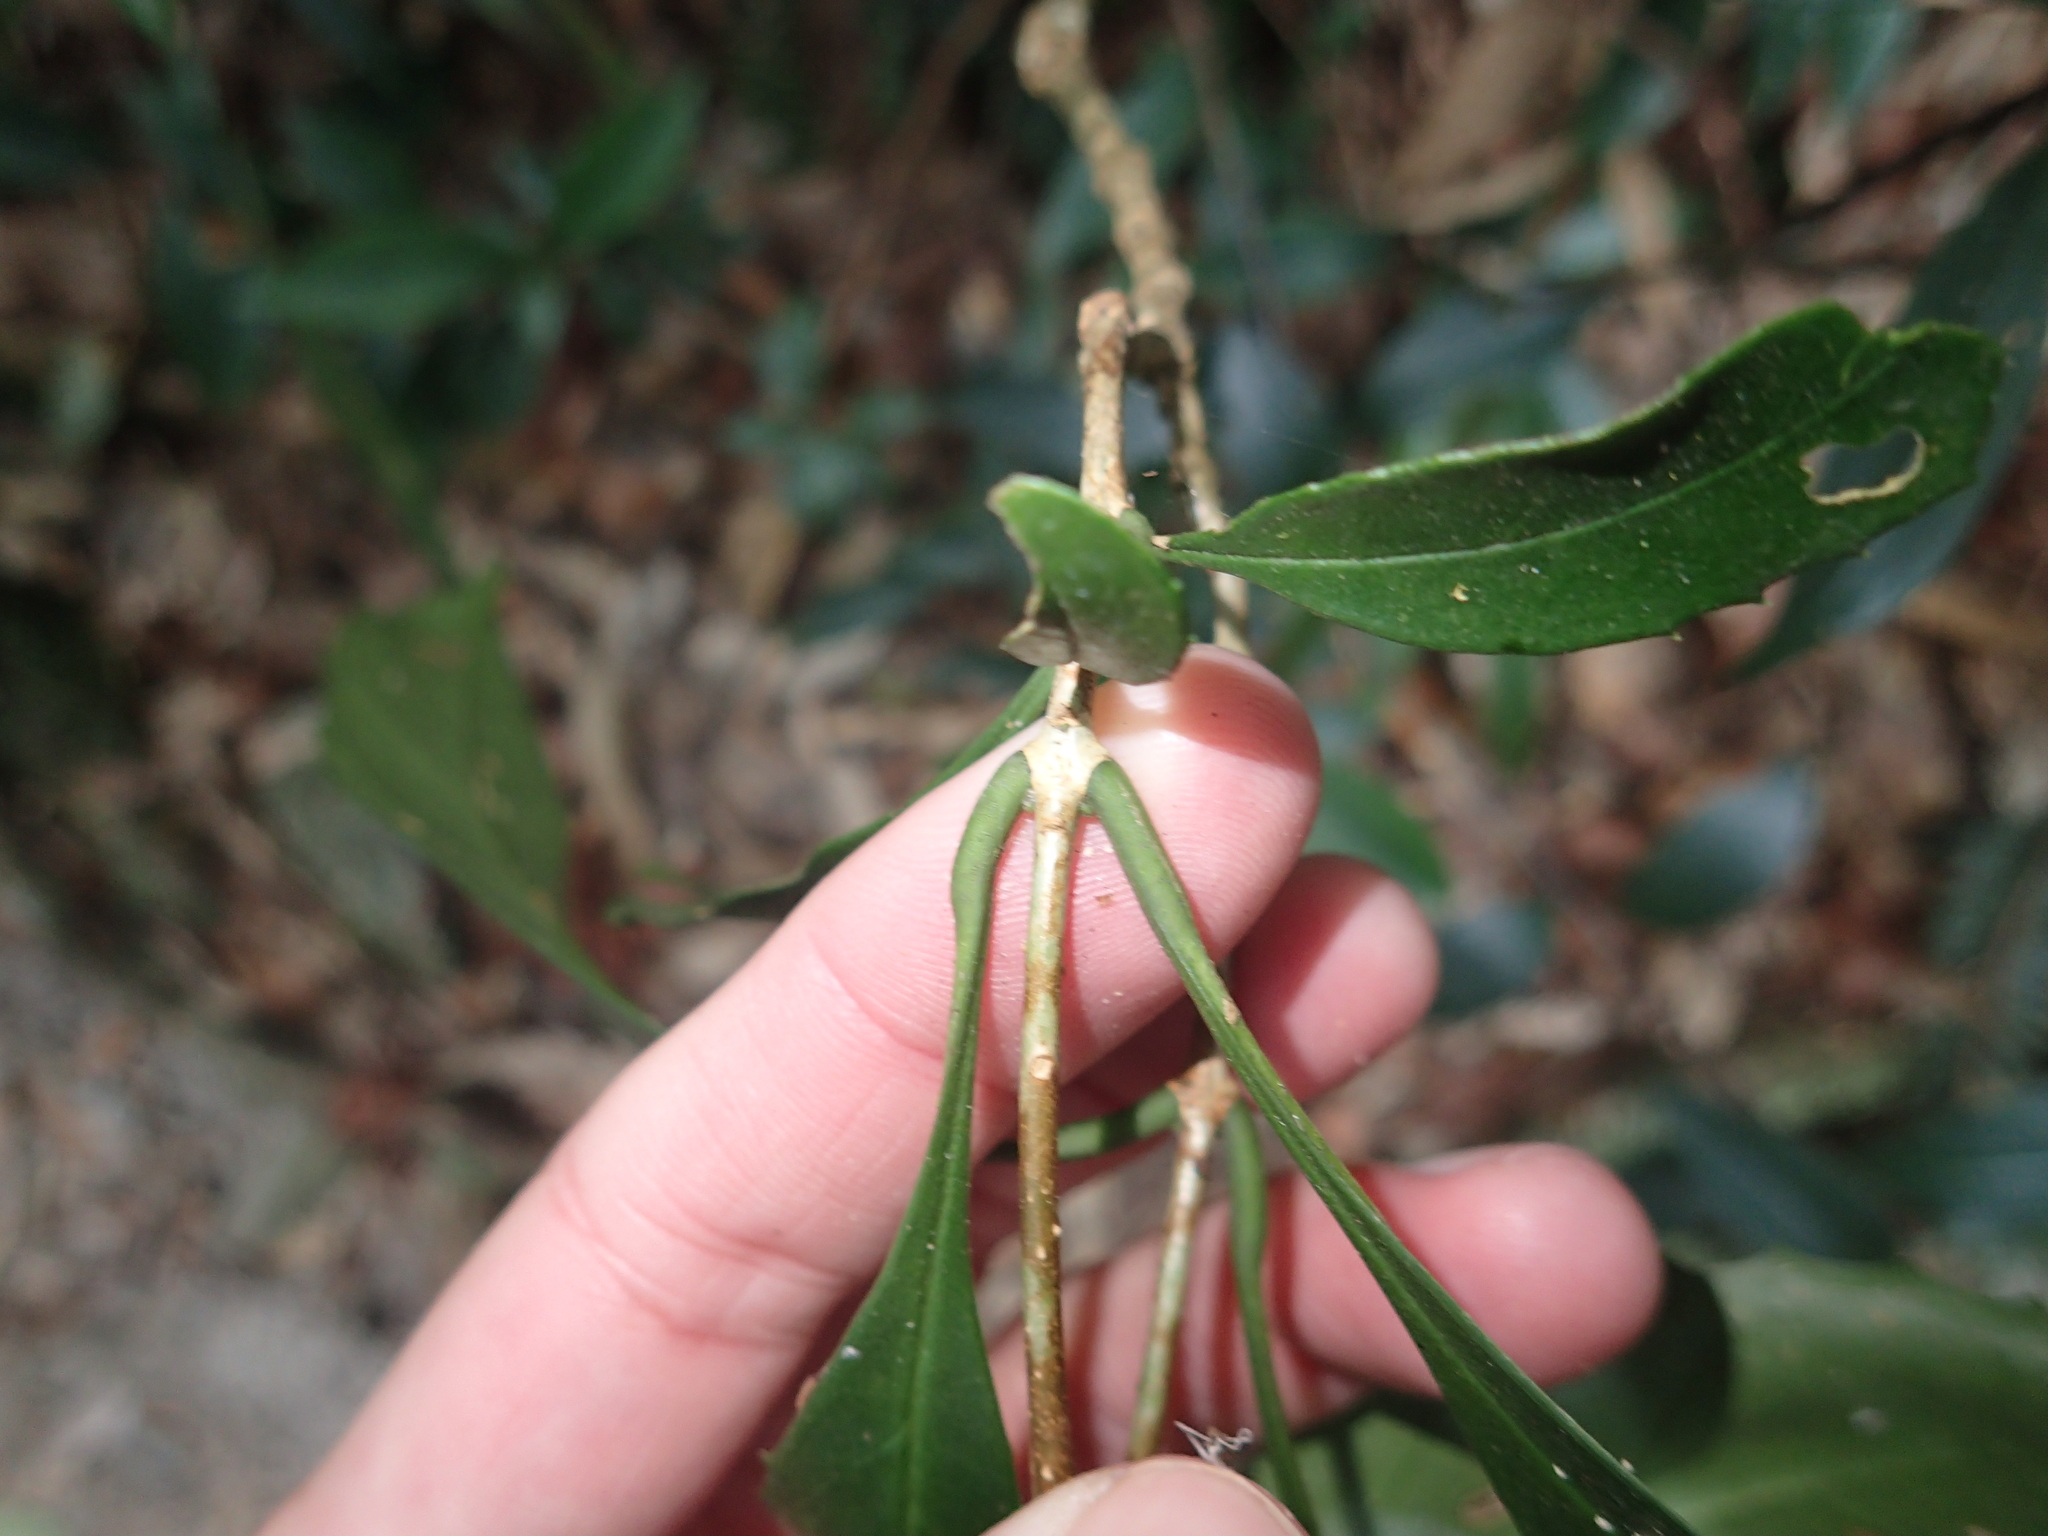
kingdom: Plantae
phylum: Tracheophyta
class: Magnoliopsida
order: Lamiales
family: Oleaceae
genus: Chengiodendron
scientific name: Chengiodendron matsumuranum
